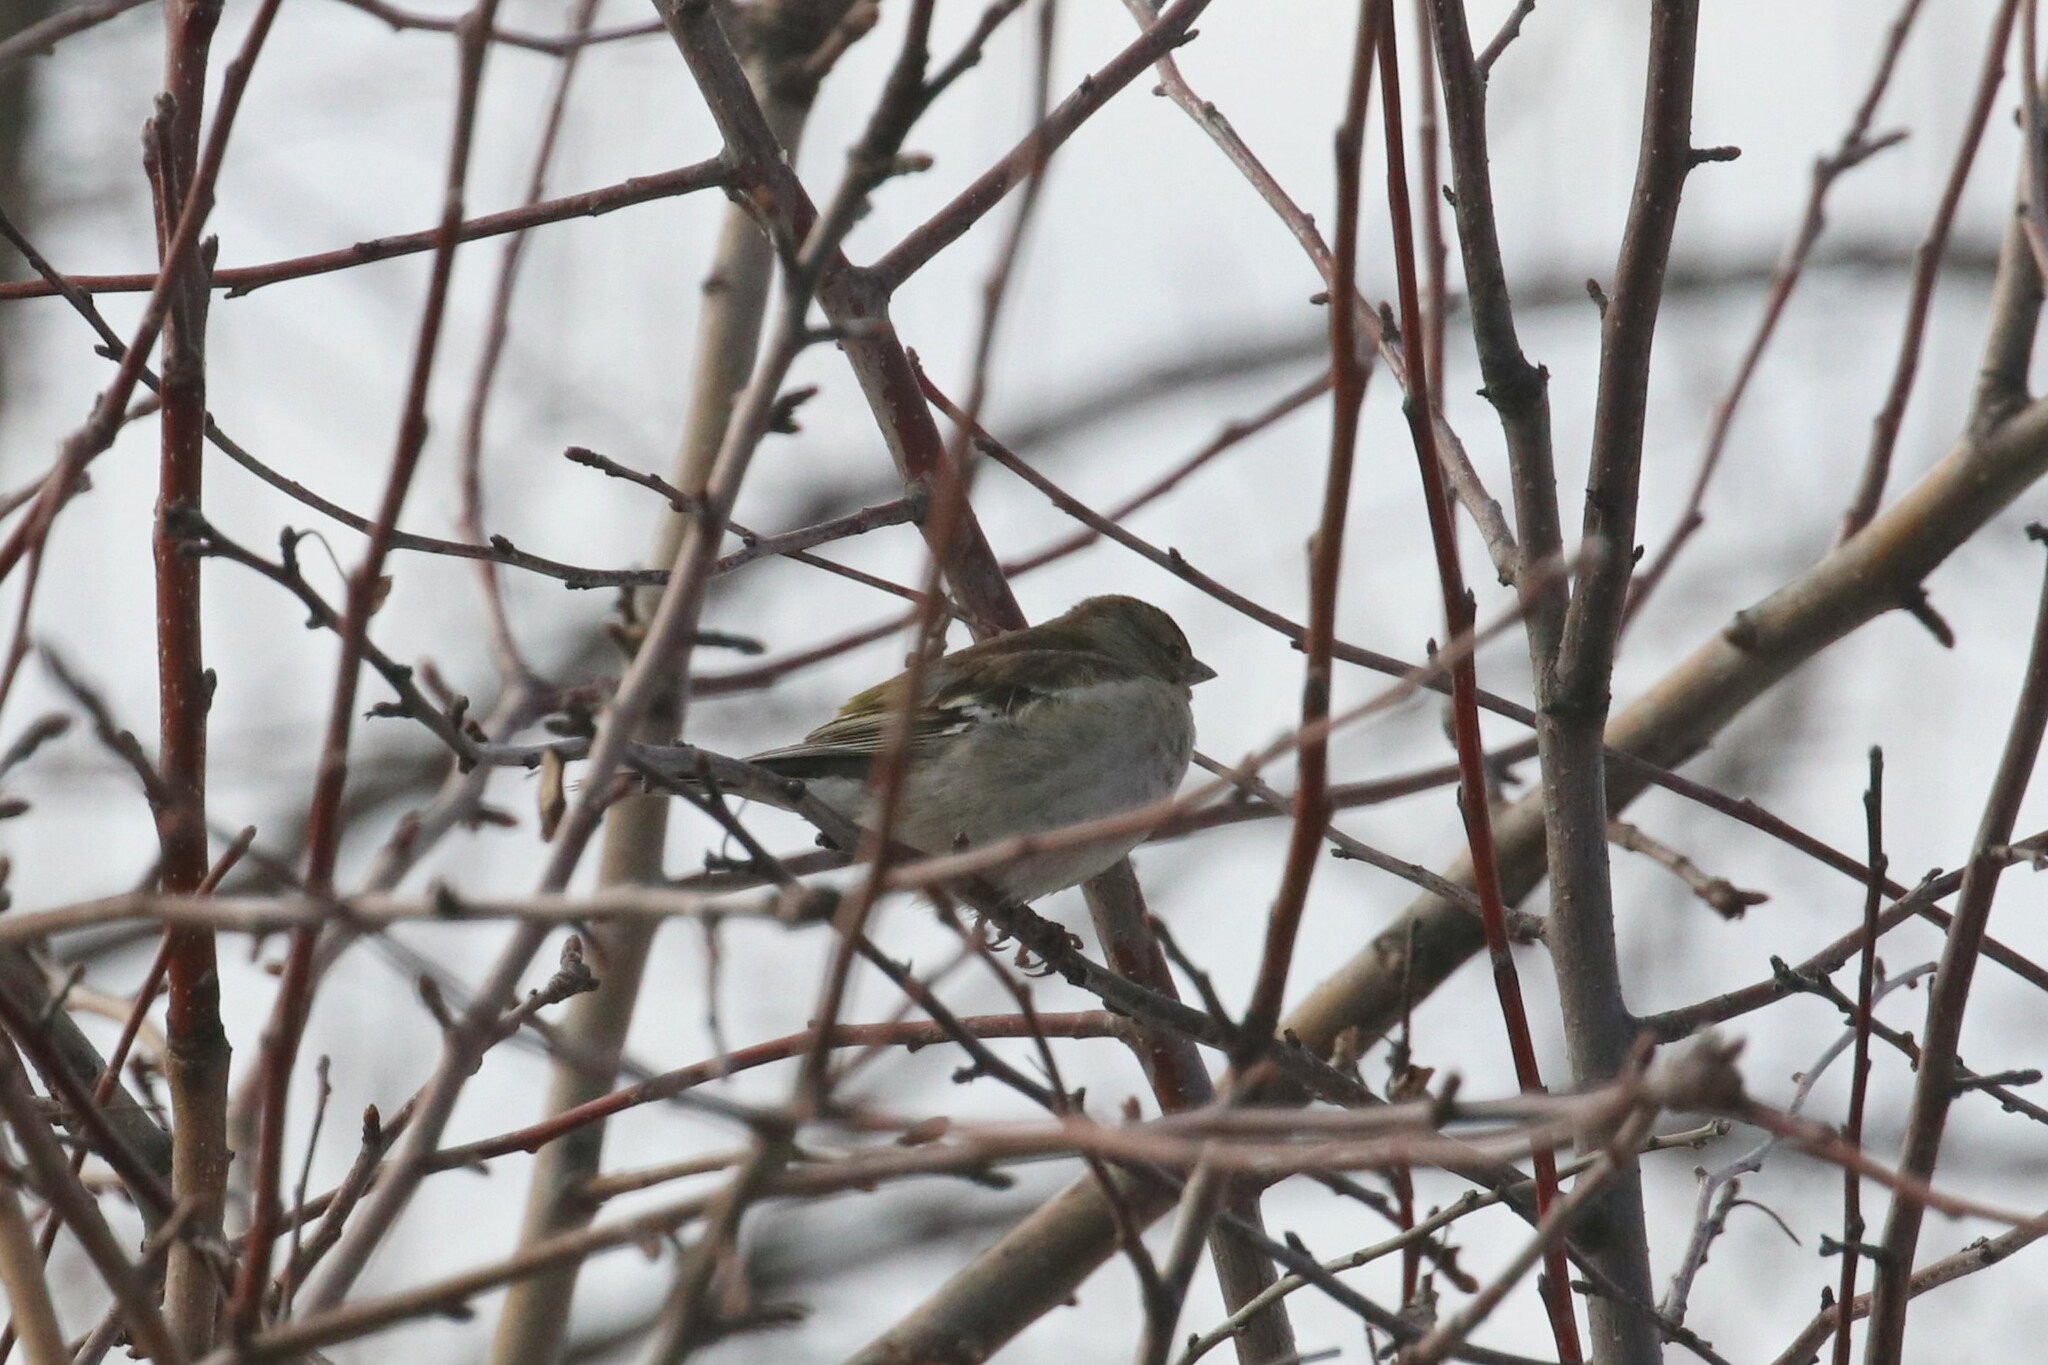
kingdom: Animalia
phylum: Chordata
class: Aves
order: Passeriformes
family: Fringillidae
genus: Fringilla
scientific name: Fringilla coelebs
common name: Common chaffinch
